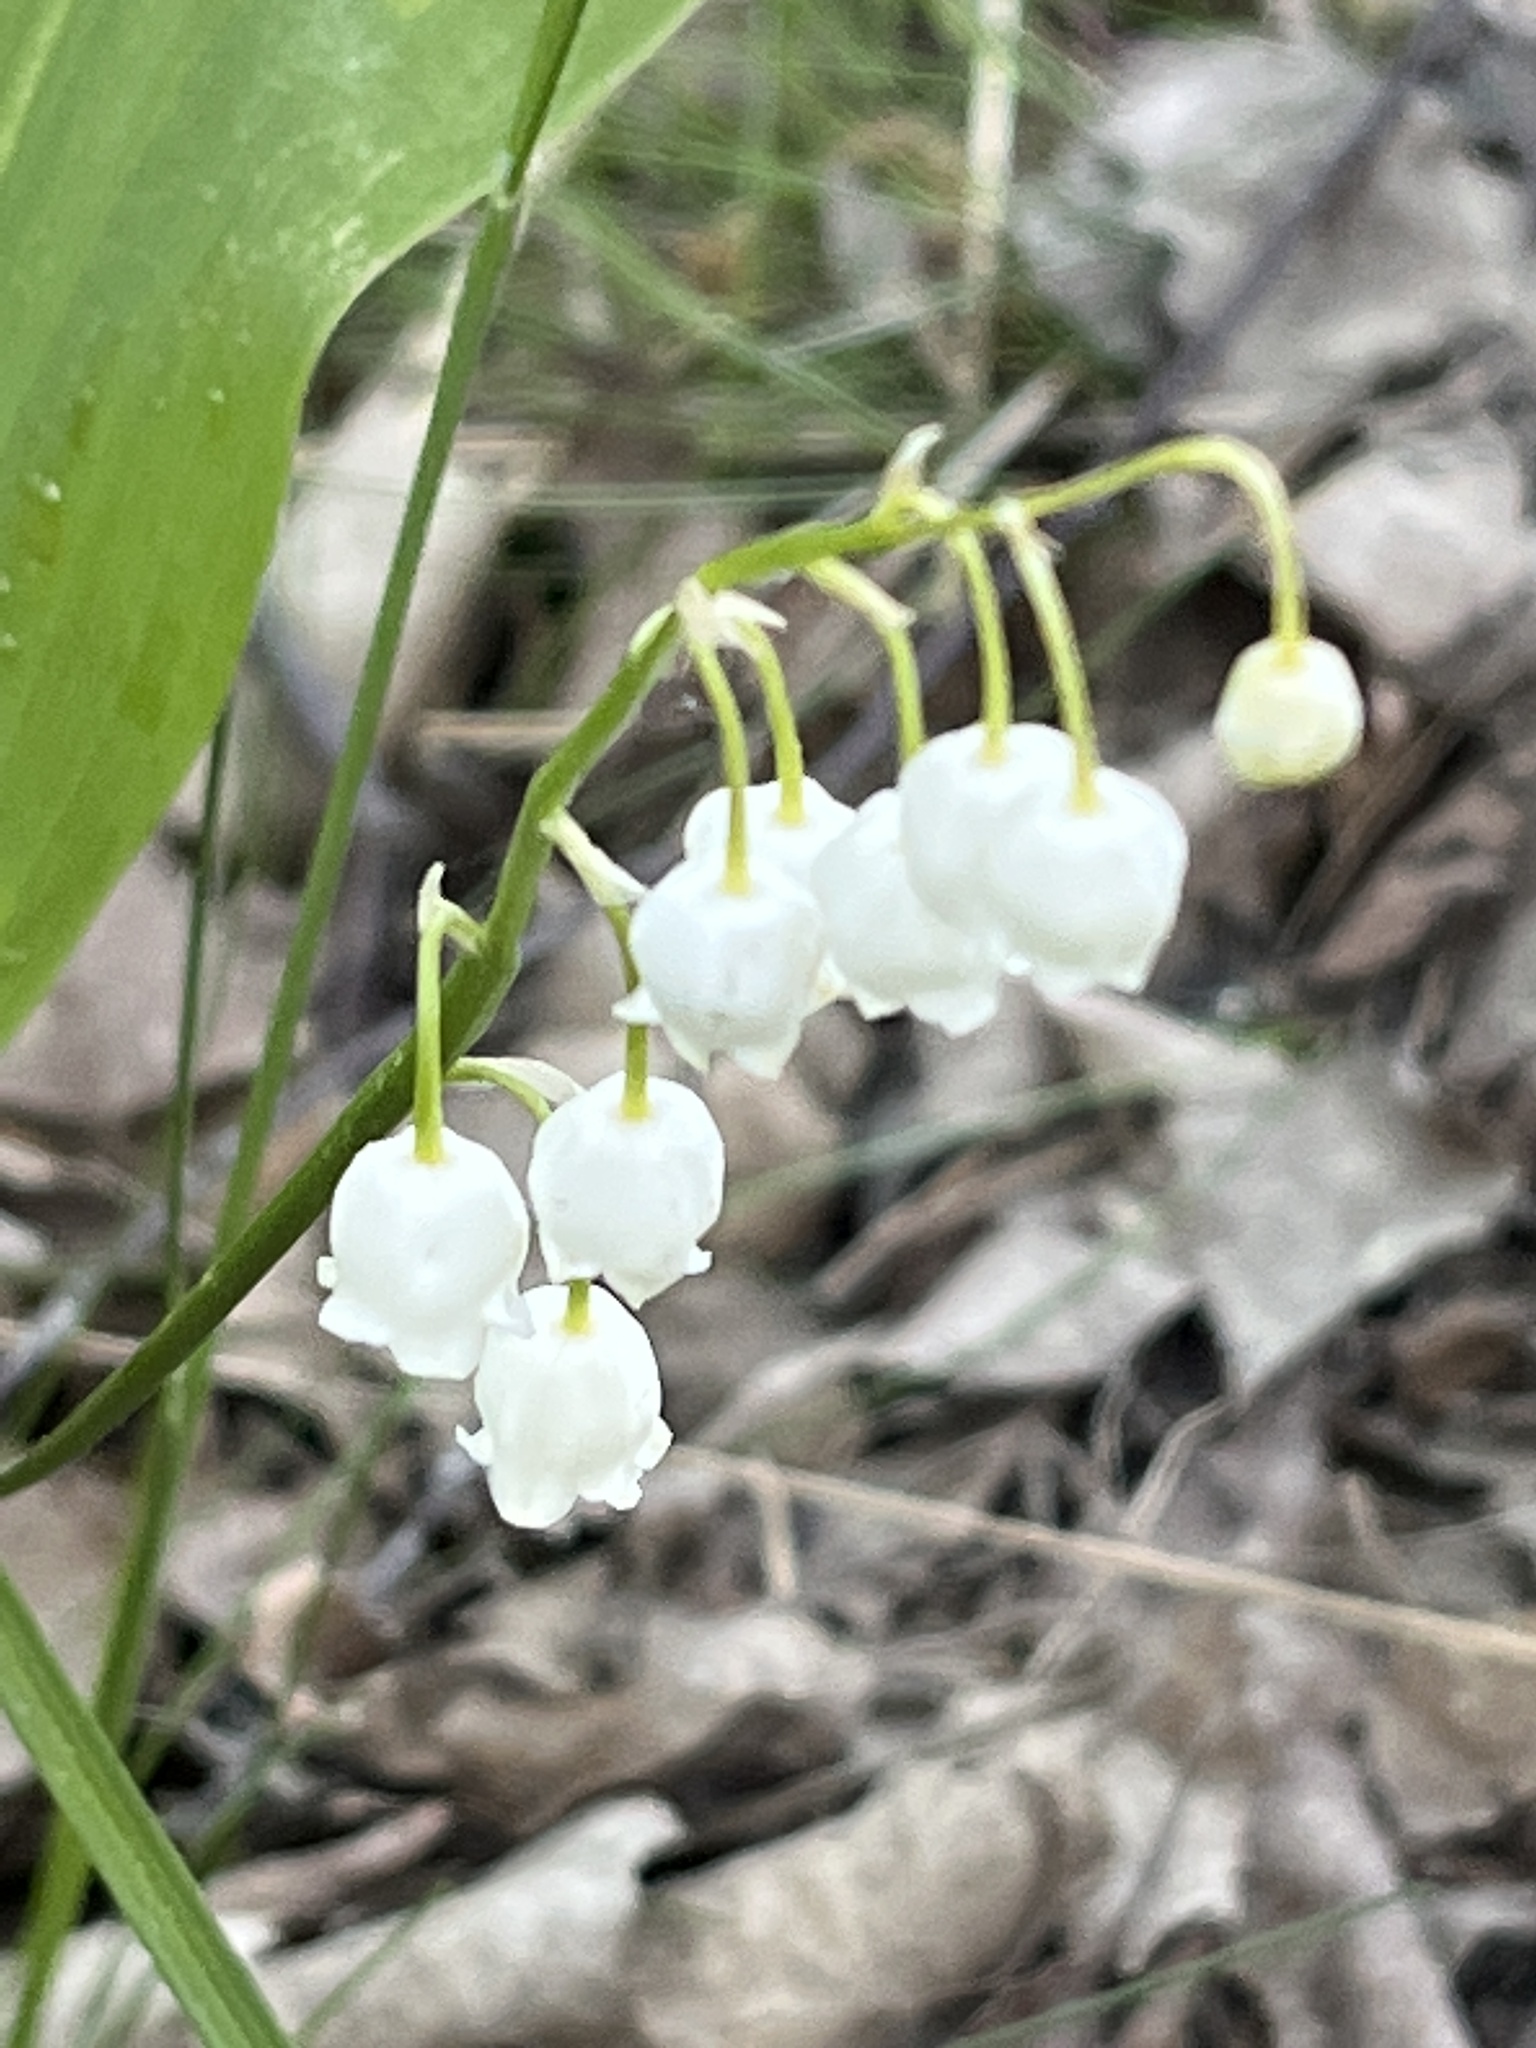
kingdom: Plantae
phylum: Tracheophyta
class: Liliopsida
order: Asparagales
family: Asparagaceae
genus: Convallaria
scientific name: Convallaria majalis
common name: Lily-of-the-valley
